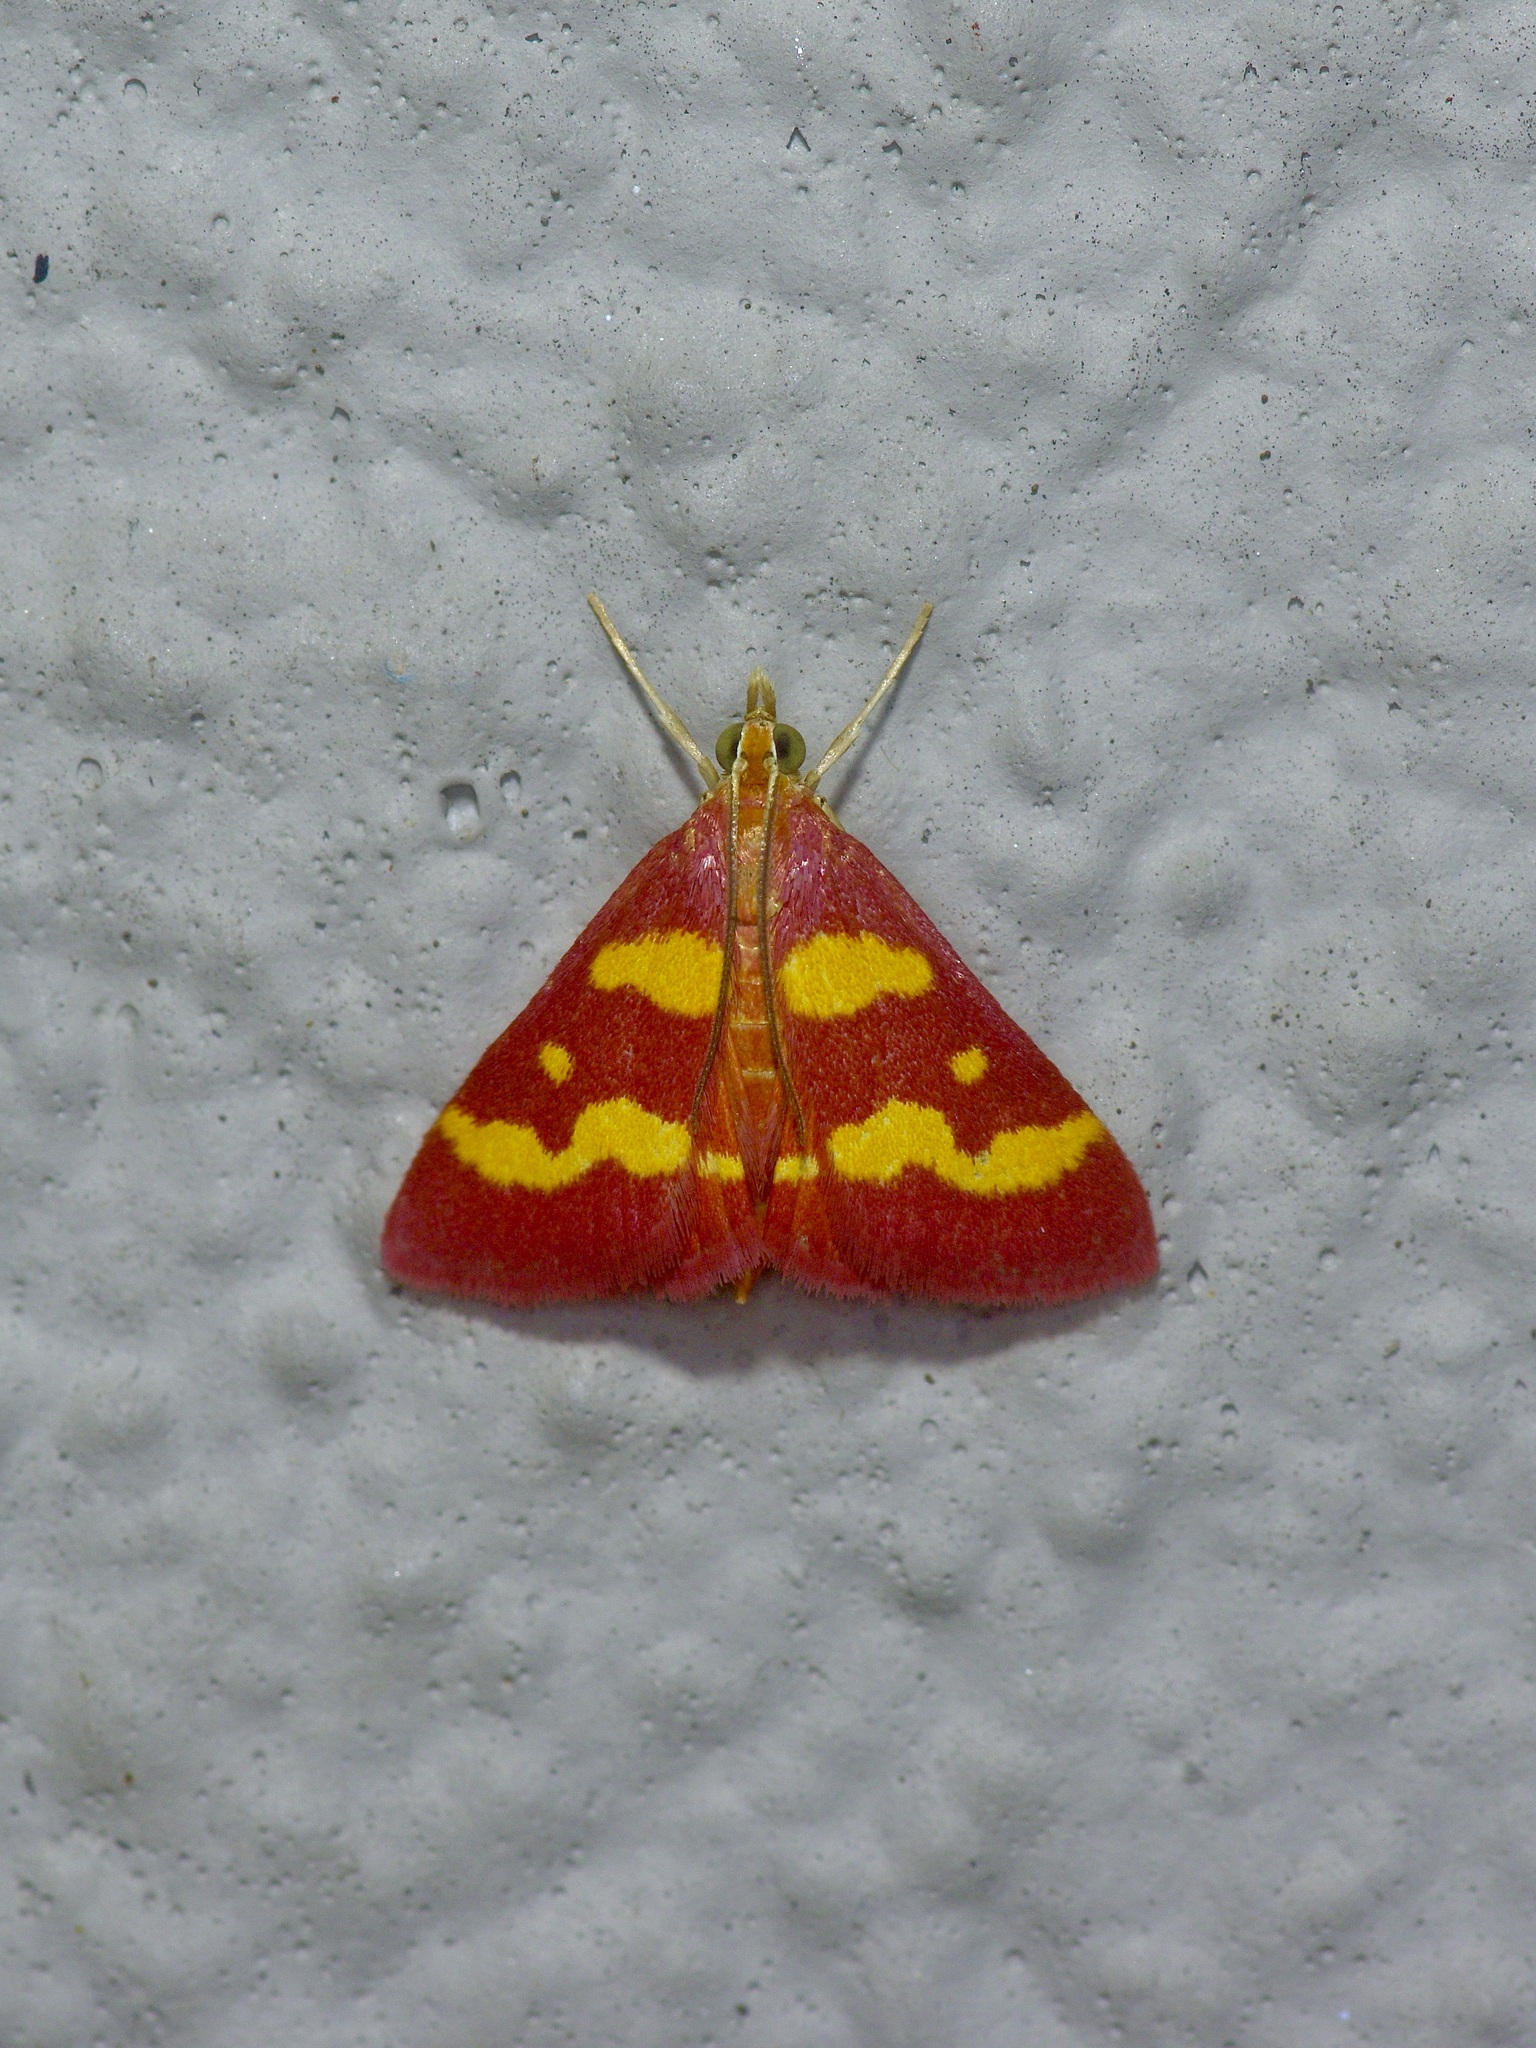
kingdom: Animalia
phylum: Arthropoda
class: Insecta
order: Lepidoptera
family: Crambidae
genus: Pyrausta
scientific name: Pyrausta tyralis
